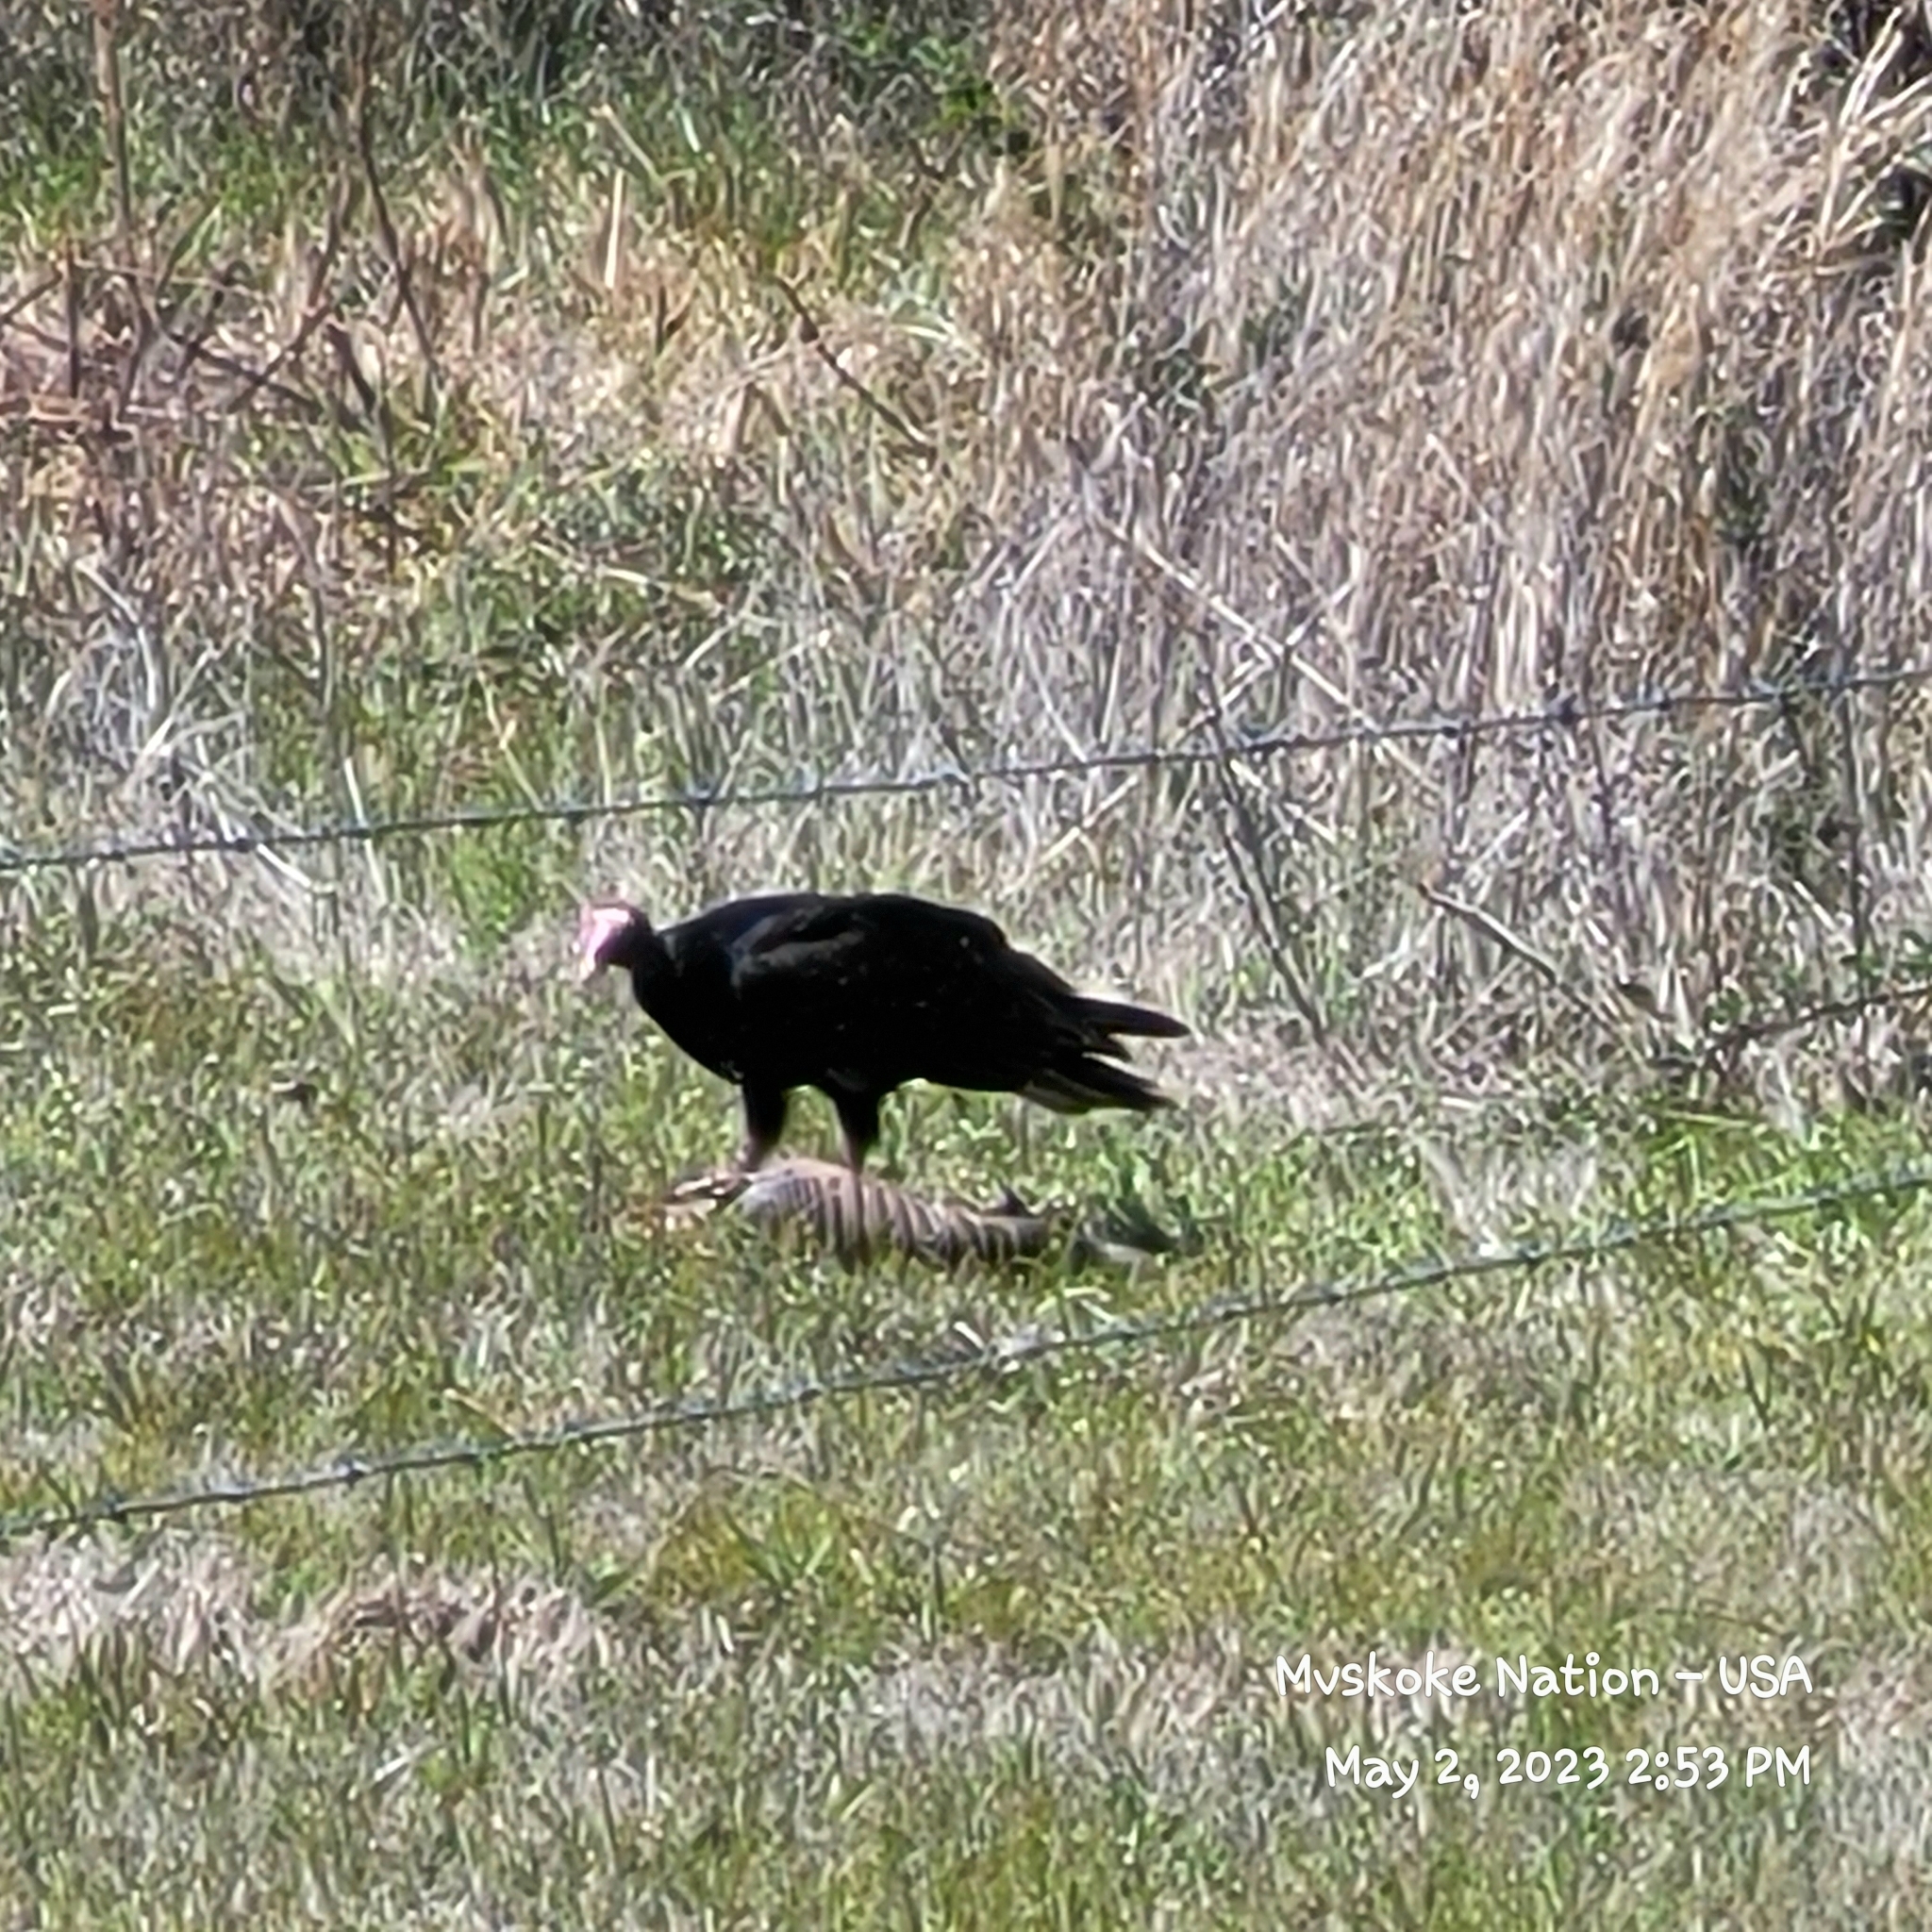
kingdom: Animalia
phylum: Chordata
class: Aves
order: Accipitriformes
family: Cathartidae
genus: Cathartes
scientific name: Cathartes aura
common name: Turkey vulture
